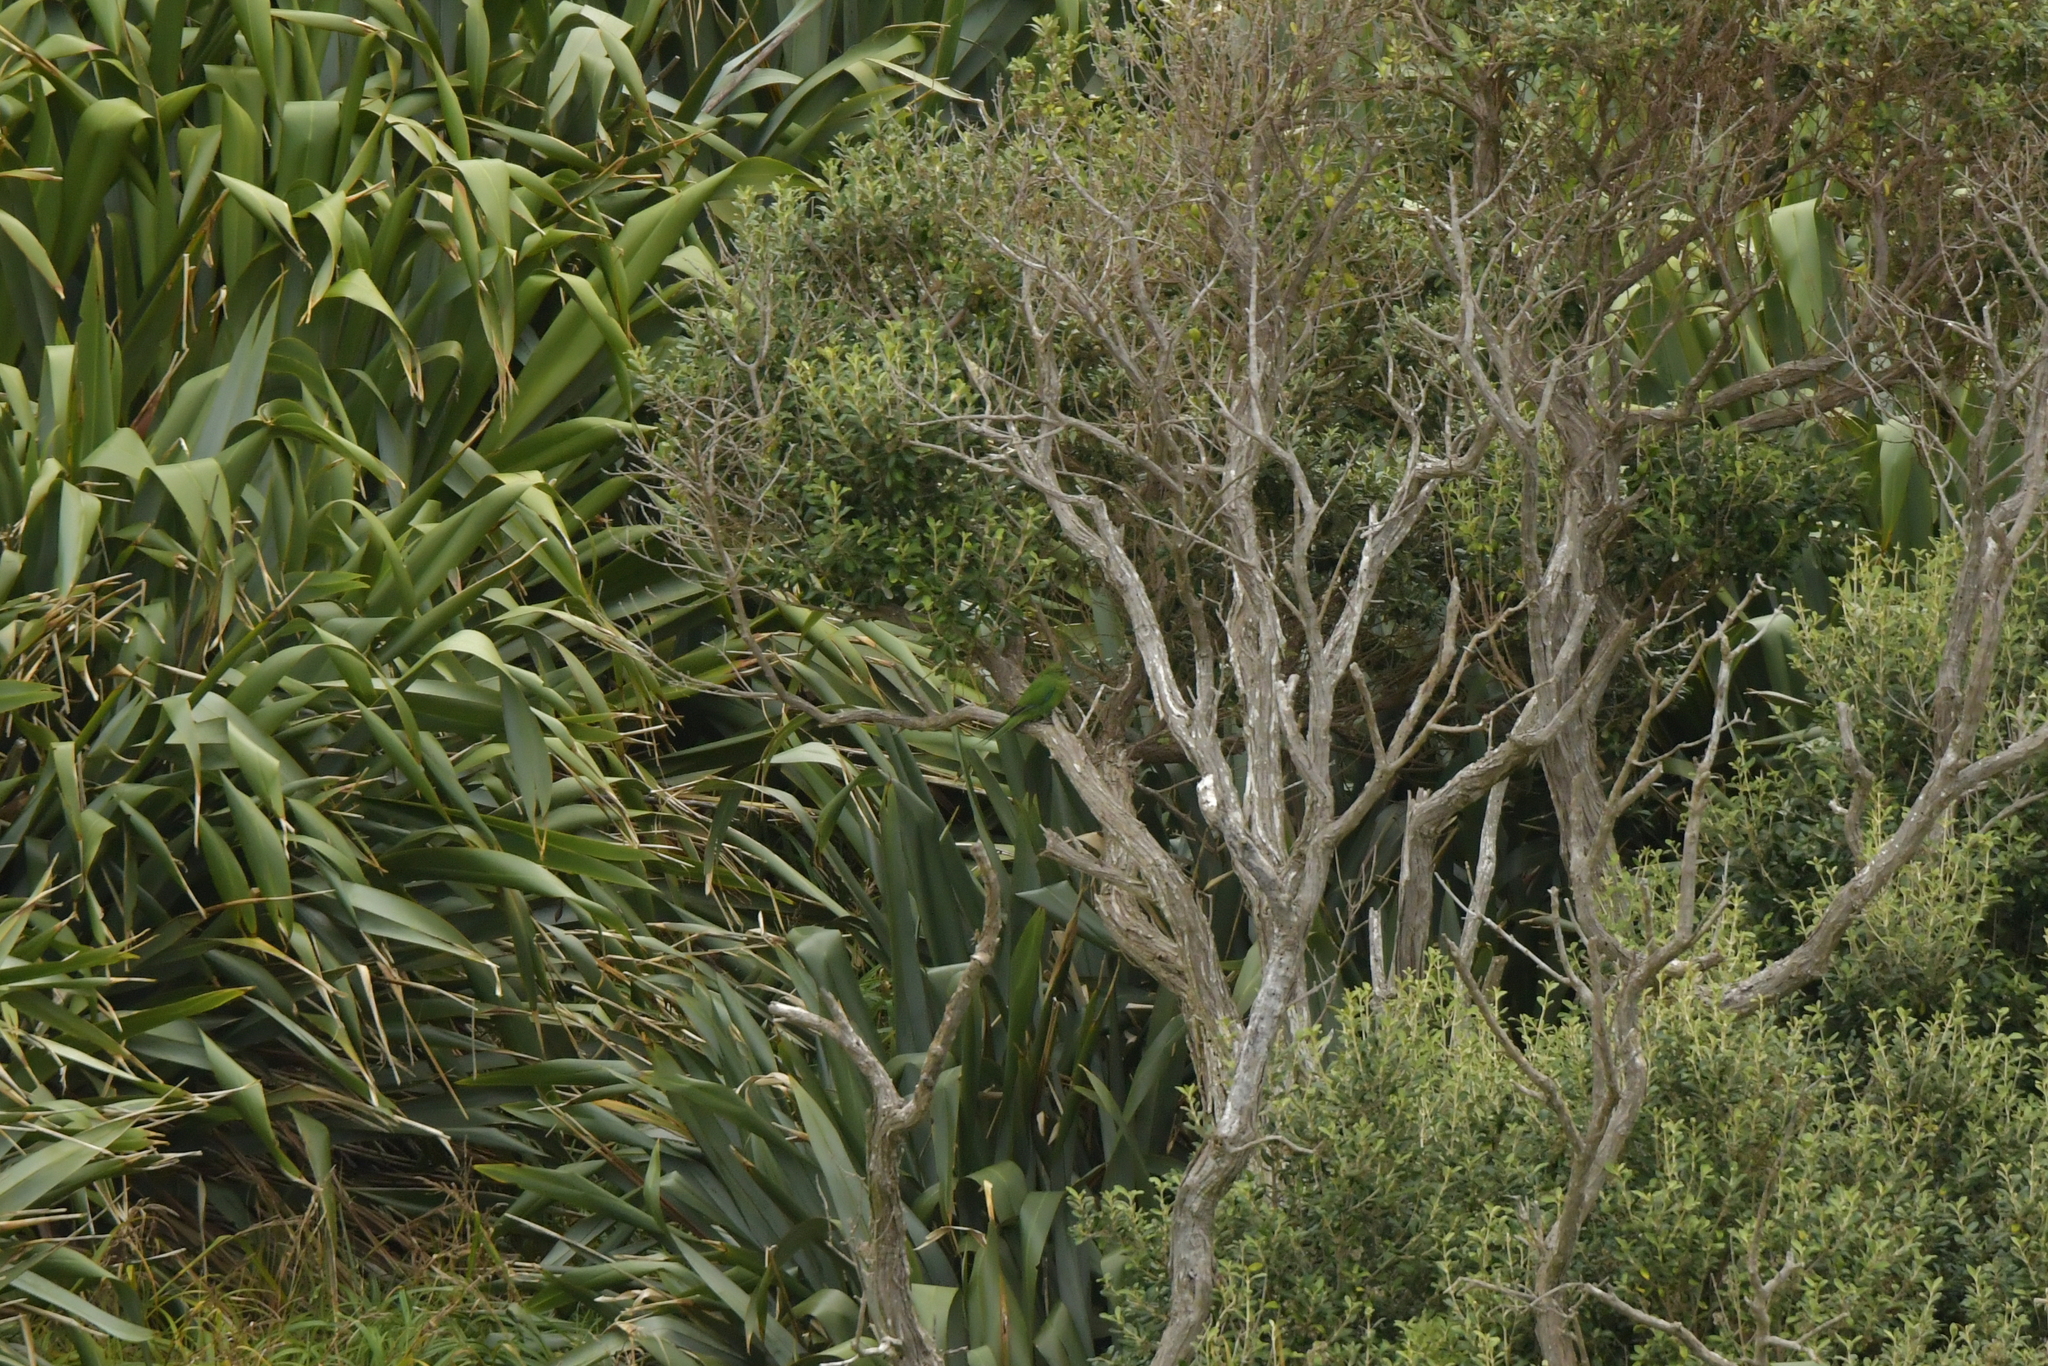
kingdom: Animalia
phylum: Chordata
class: Aves
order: Psittaciformes
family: Psittacidae
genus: Cyanoramphus
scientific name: Cyanoramphus forbesi
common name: Chatham parakeet
